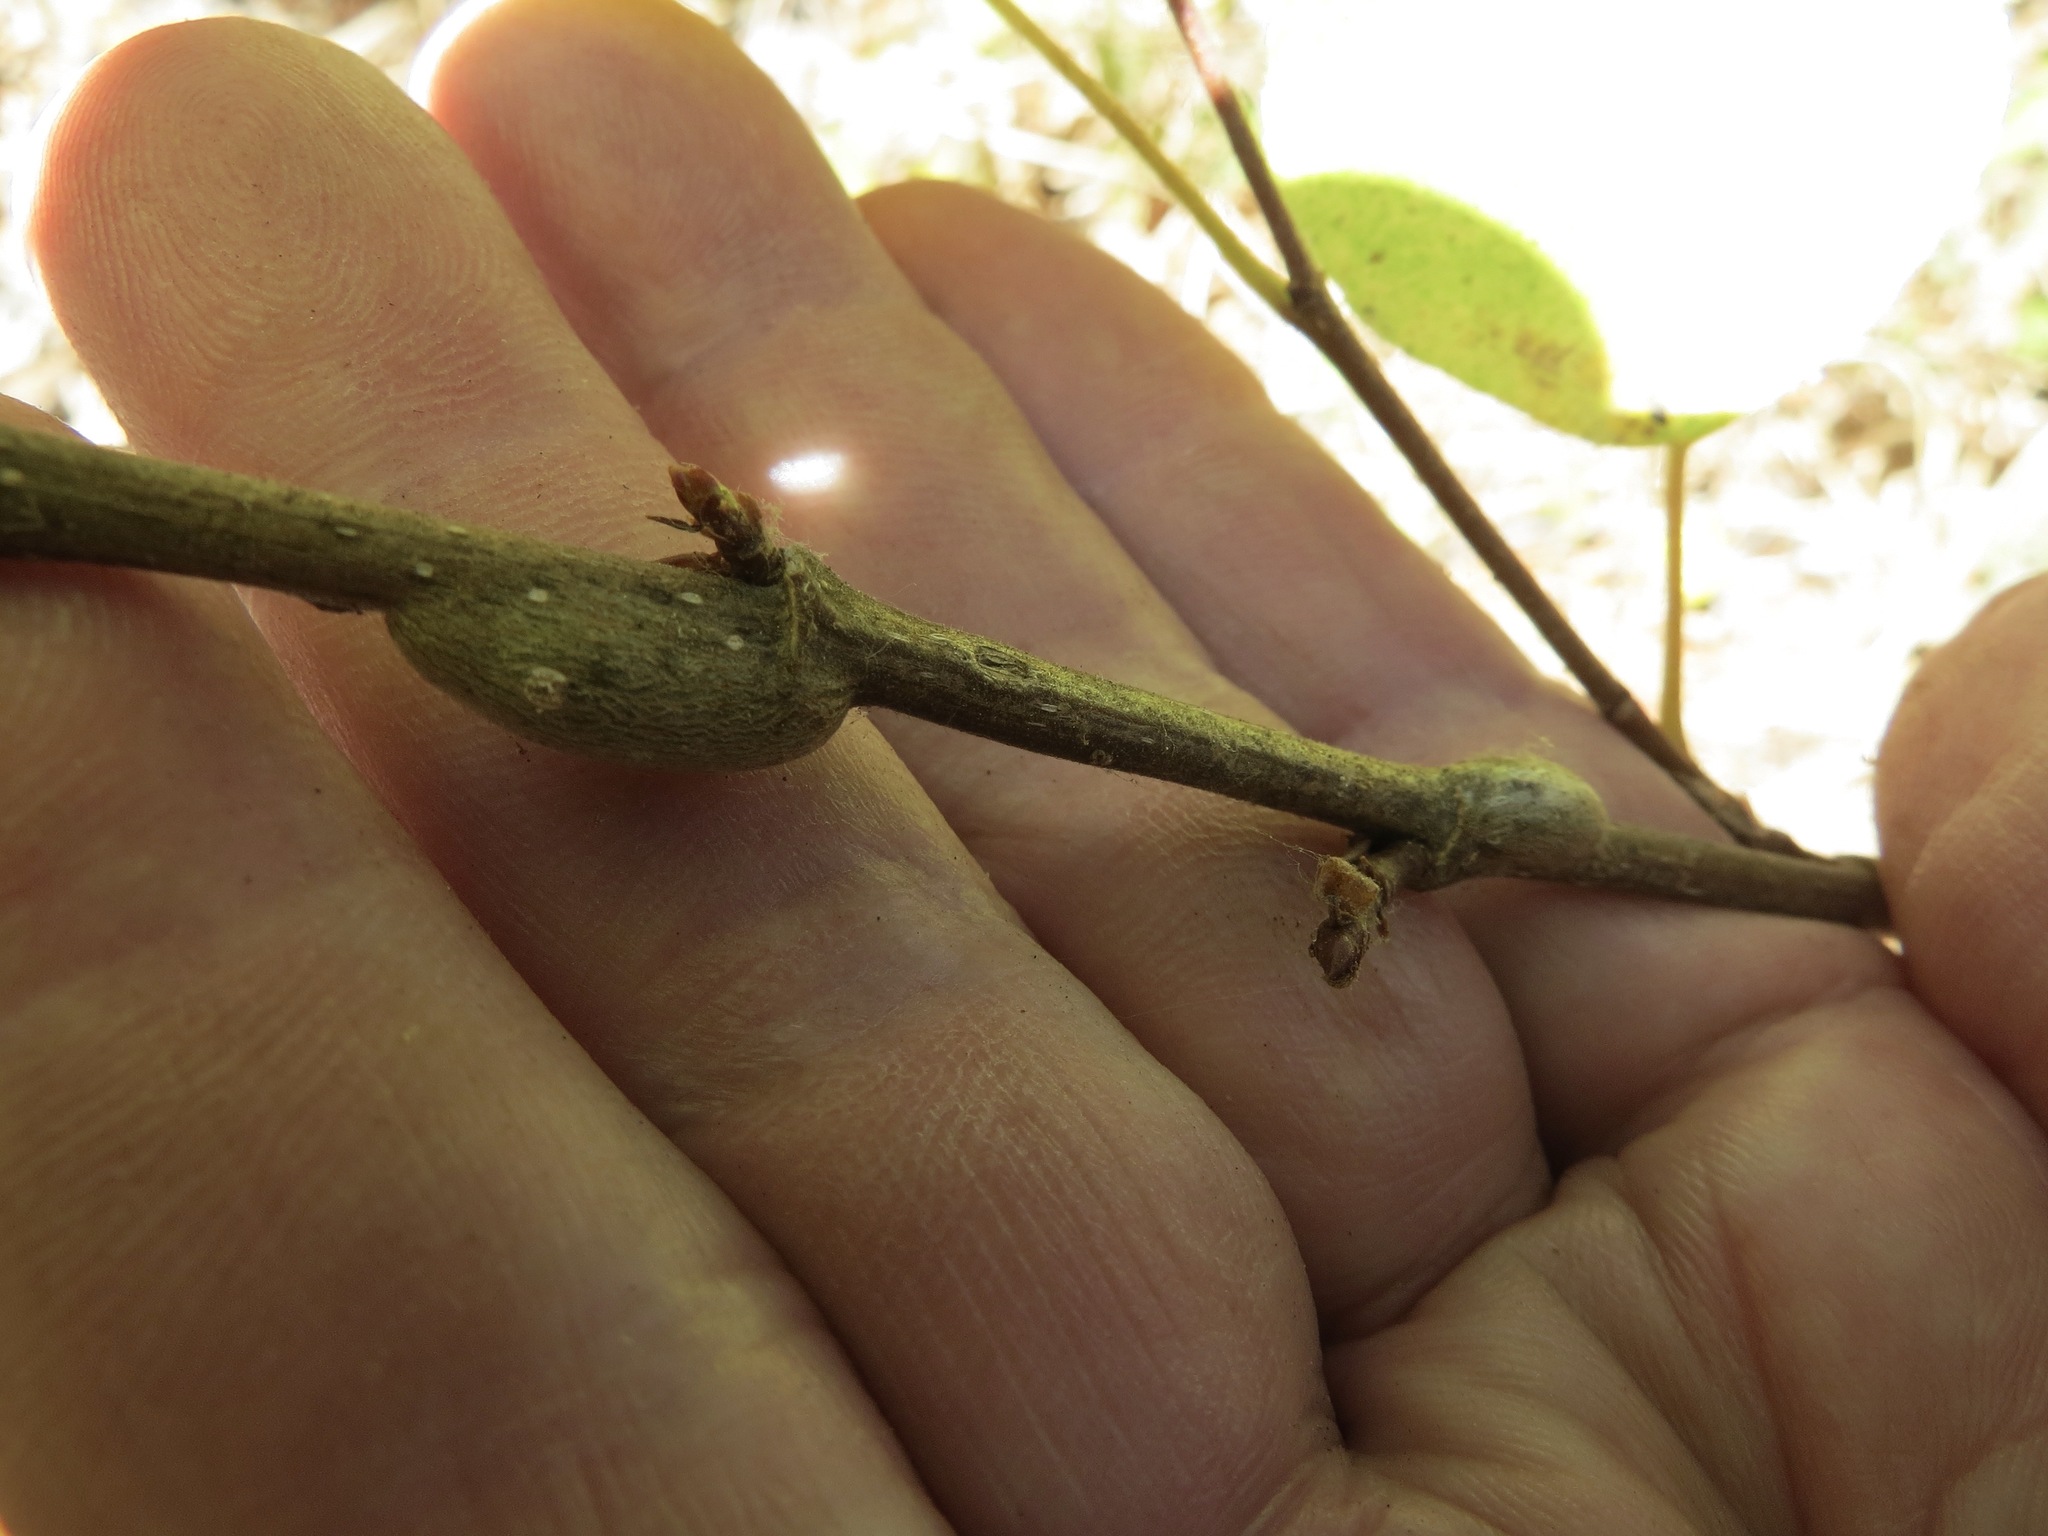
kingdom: Animalia
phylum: Arthropoda
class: Insecta
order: Diptera
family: Agromyzidae
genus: Euhexomyza
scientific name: Euhexomyza schineri
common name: Poplar twiggall fly
